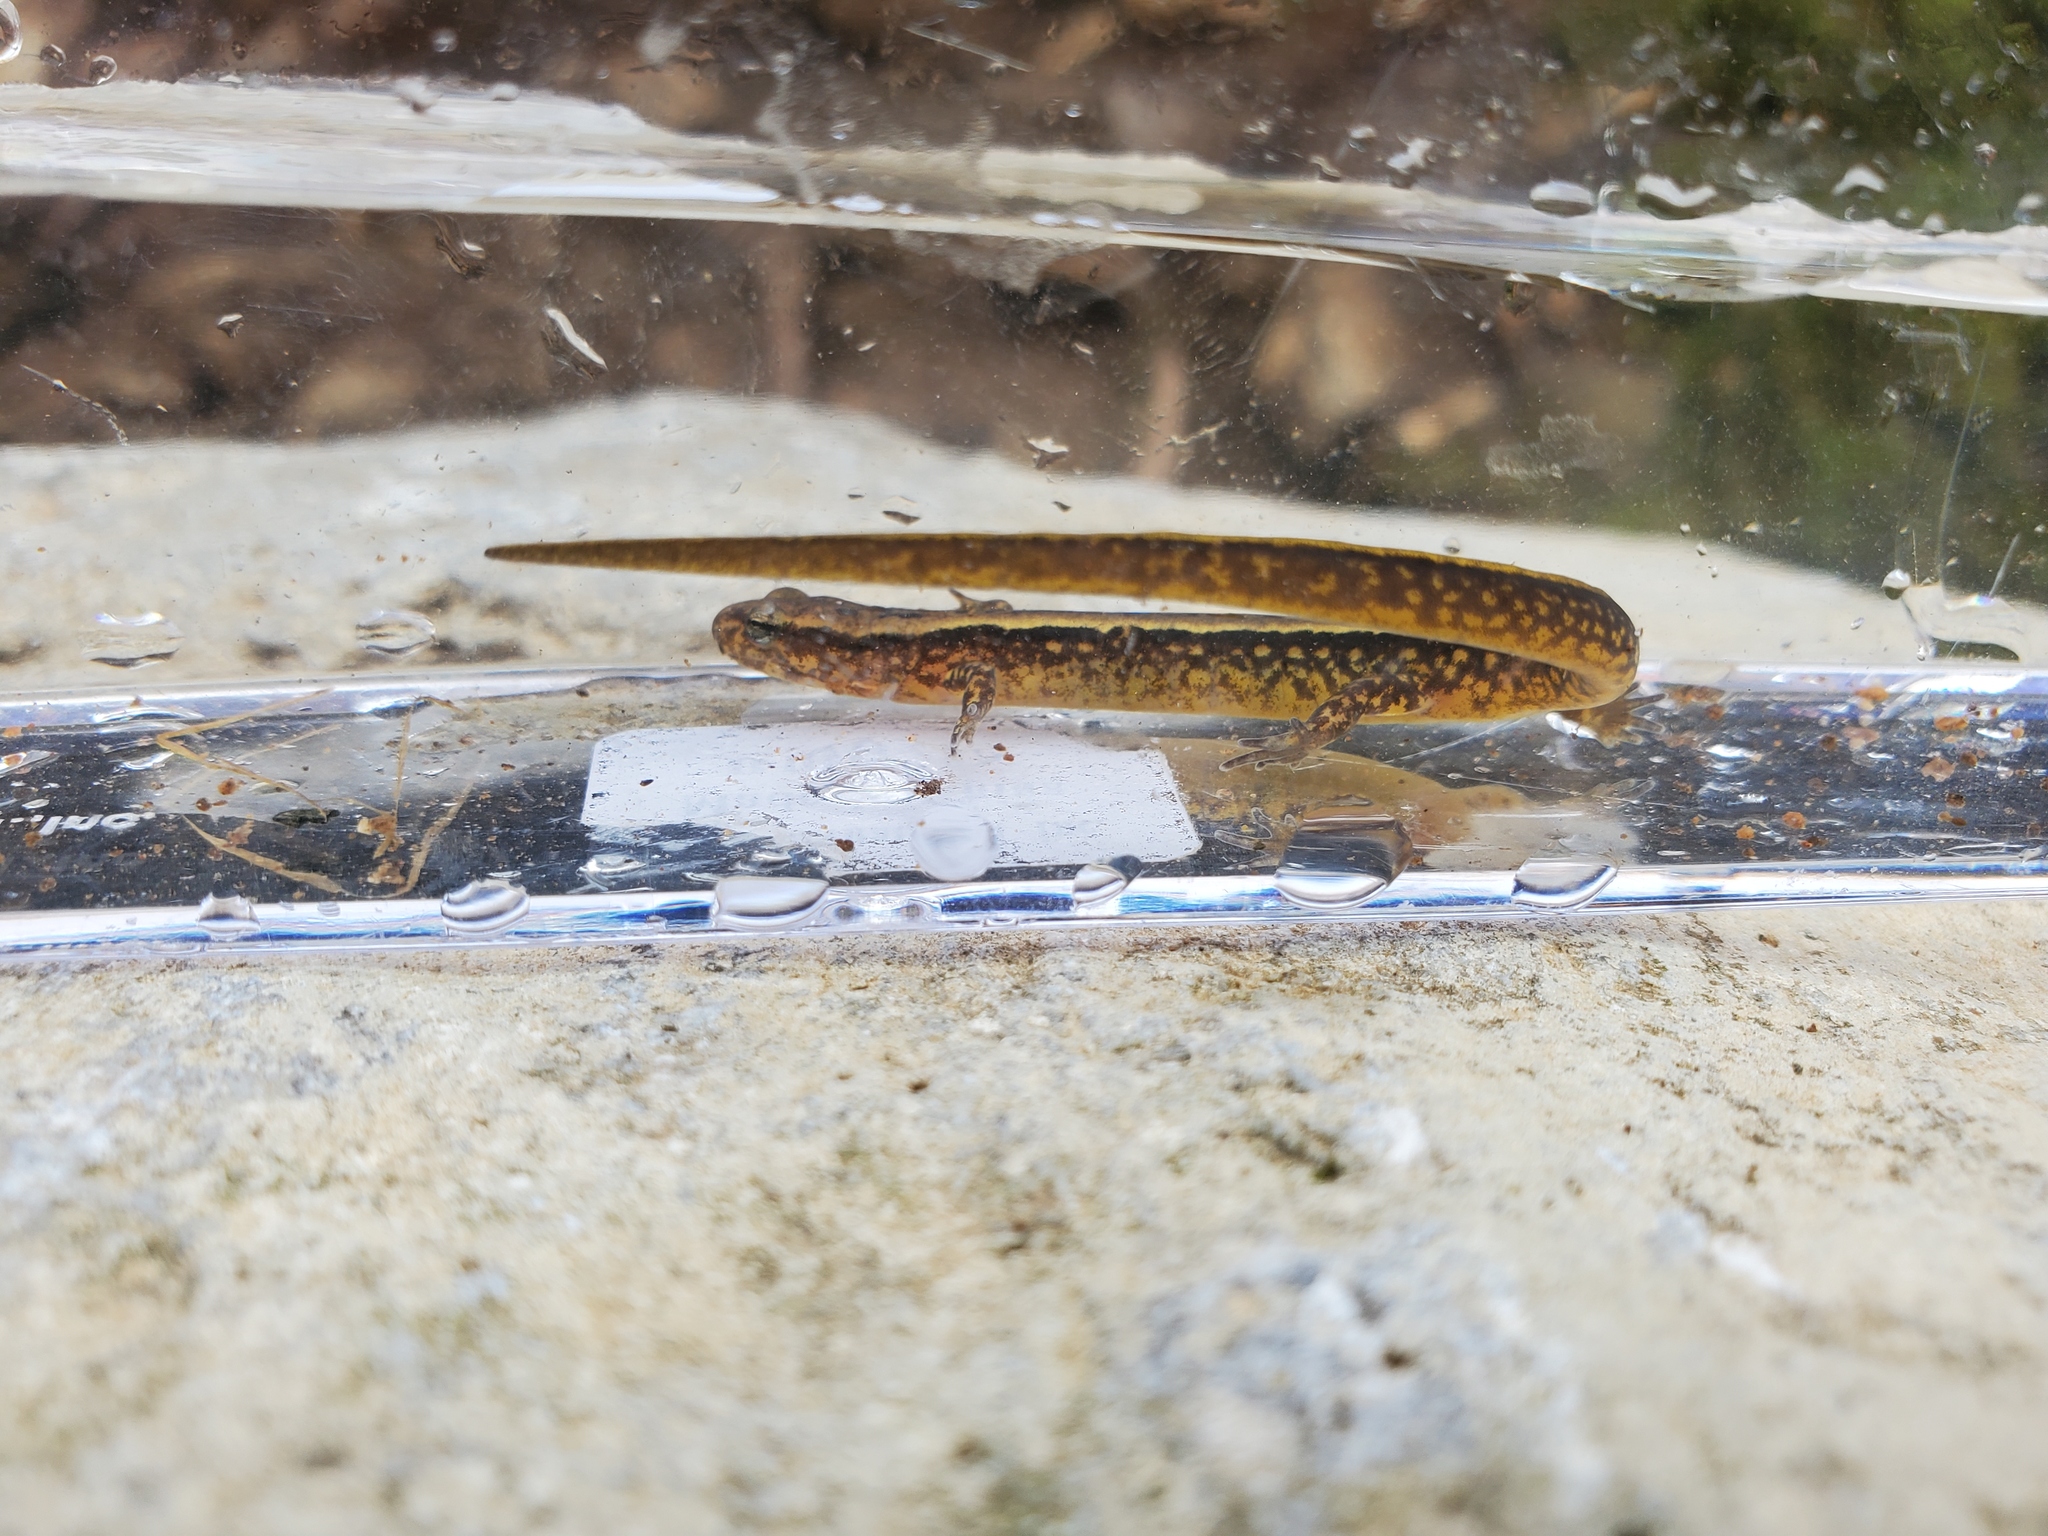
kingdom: Animalia
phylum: Chordata
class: Amphibia
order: Caudata
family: Plethodontidae
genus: Eurycea
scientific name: Eurycea cirrigera
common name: Southern two-lined salamander
